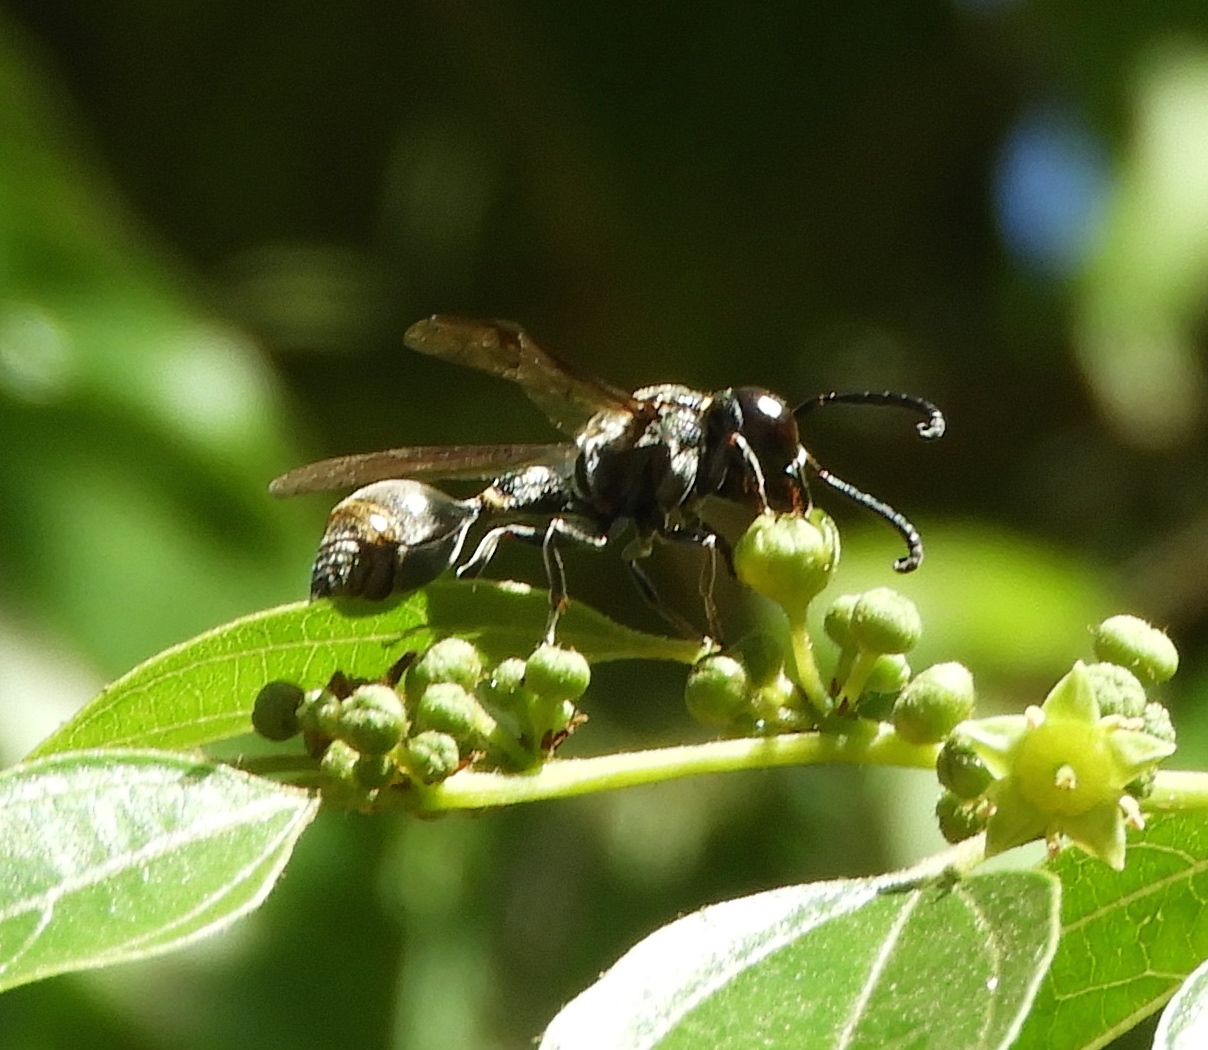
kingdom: Animalia
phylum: Arthropoda
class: Insecta
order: Hymenoptera
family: Eumenidae
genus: Zethus
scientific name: Zethus aztecus
